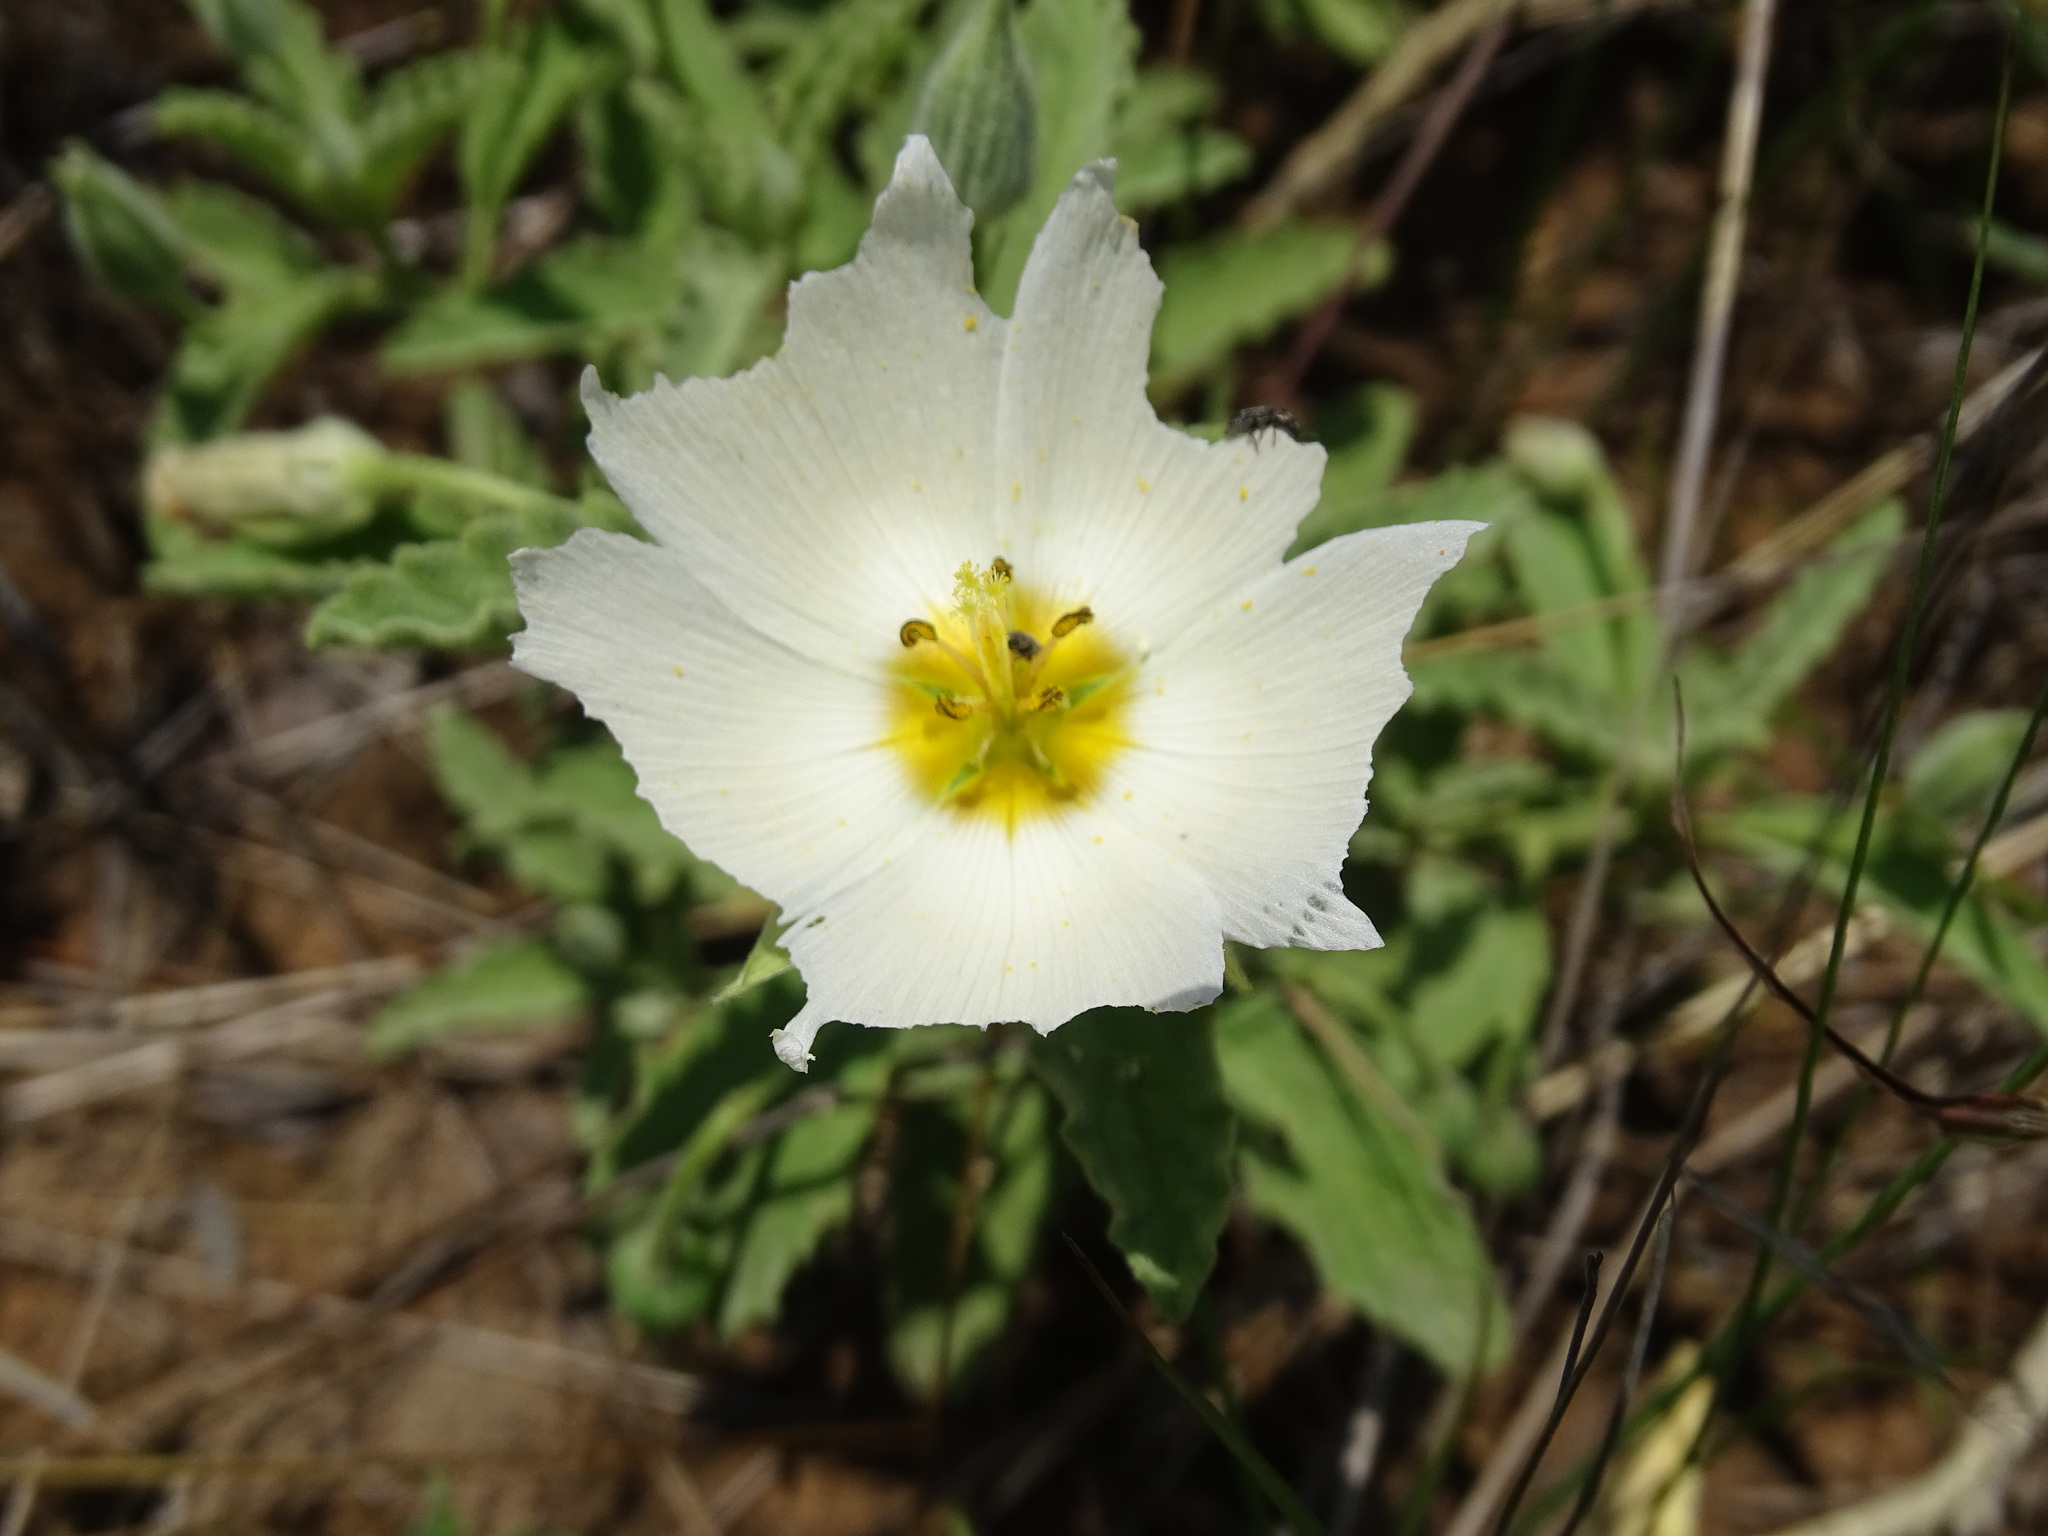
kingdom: Plantae
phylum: Tracheophyta
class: Magnoliopsida
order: Malpighiales
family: Turneraceae
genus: Piriqueta
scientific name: Piriqueta mortonii
